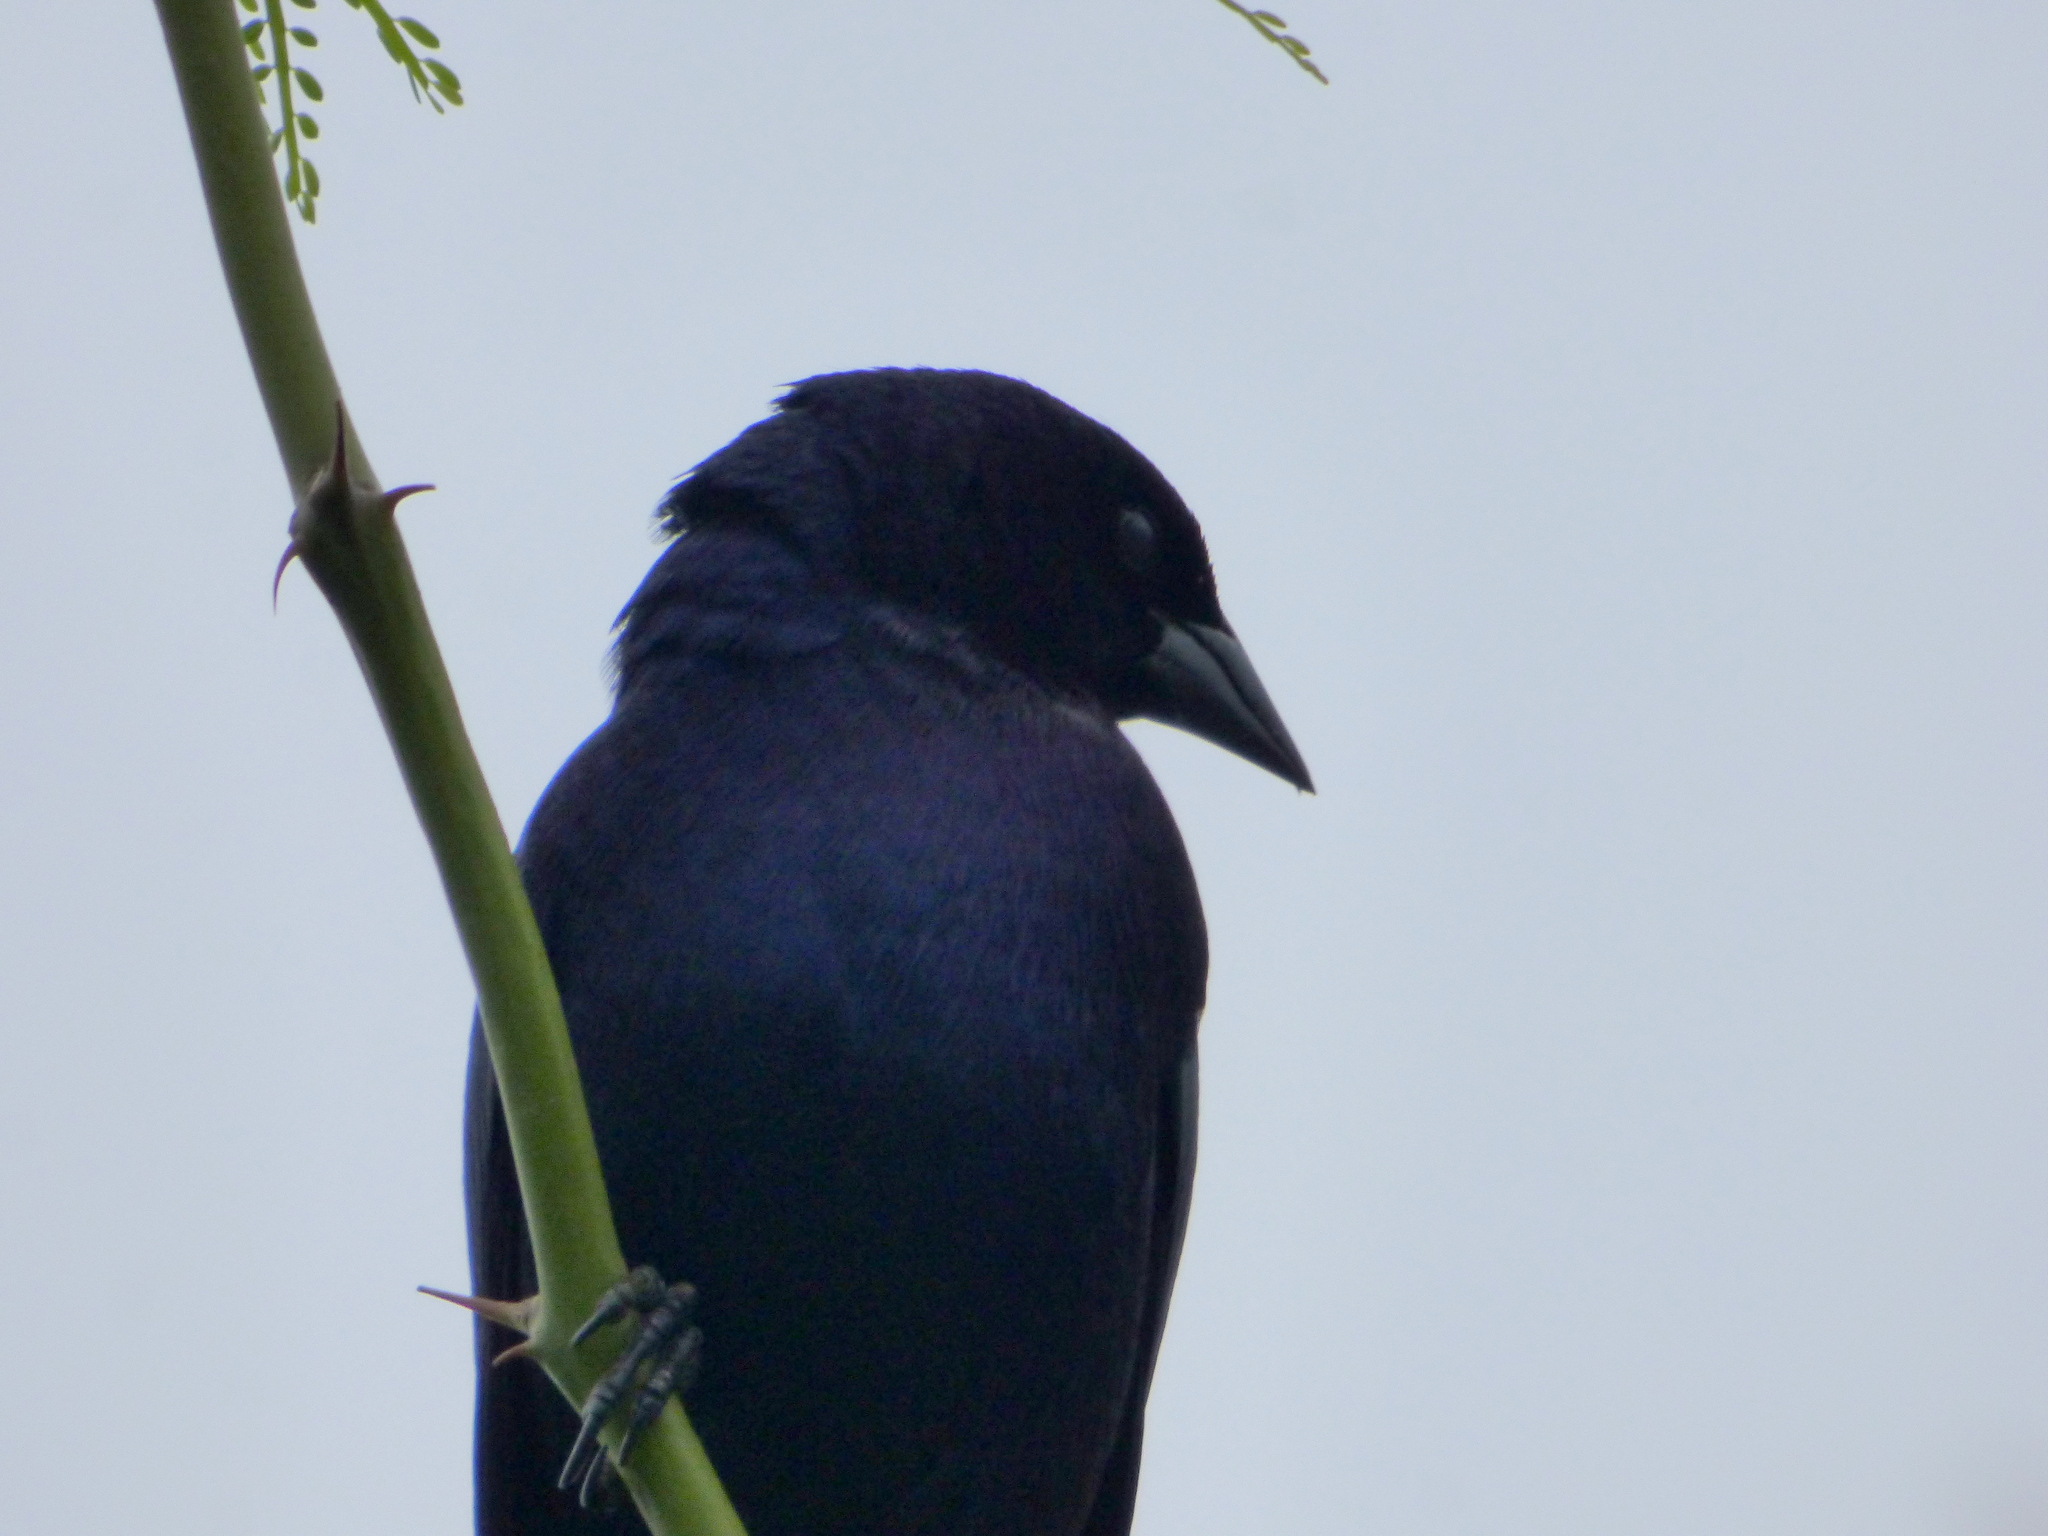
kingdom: Animalia
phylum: Chordata
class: Aves
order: Passeriformes
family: Icteridae
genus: Molothrus
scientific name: Molothrus bonariensis
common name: Shiny cowbird
